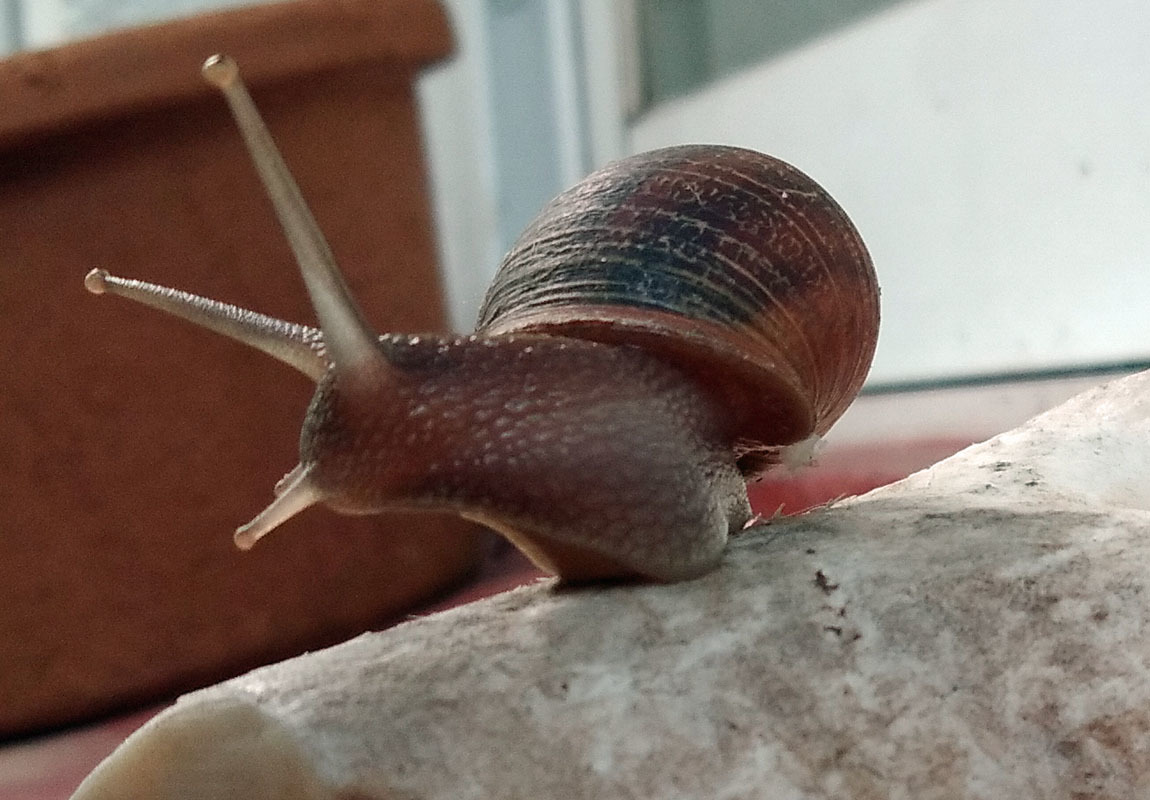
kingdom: Animalia
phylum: Mollusca
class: Gastropoda
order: Stylommatophora
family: Helicidae
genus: Cornu
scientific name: Cornu aspersum
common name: Brown garden snail
